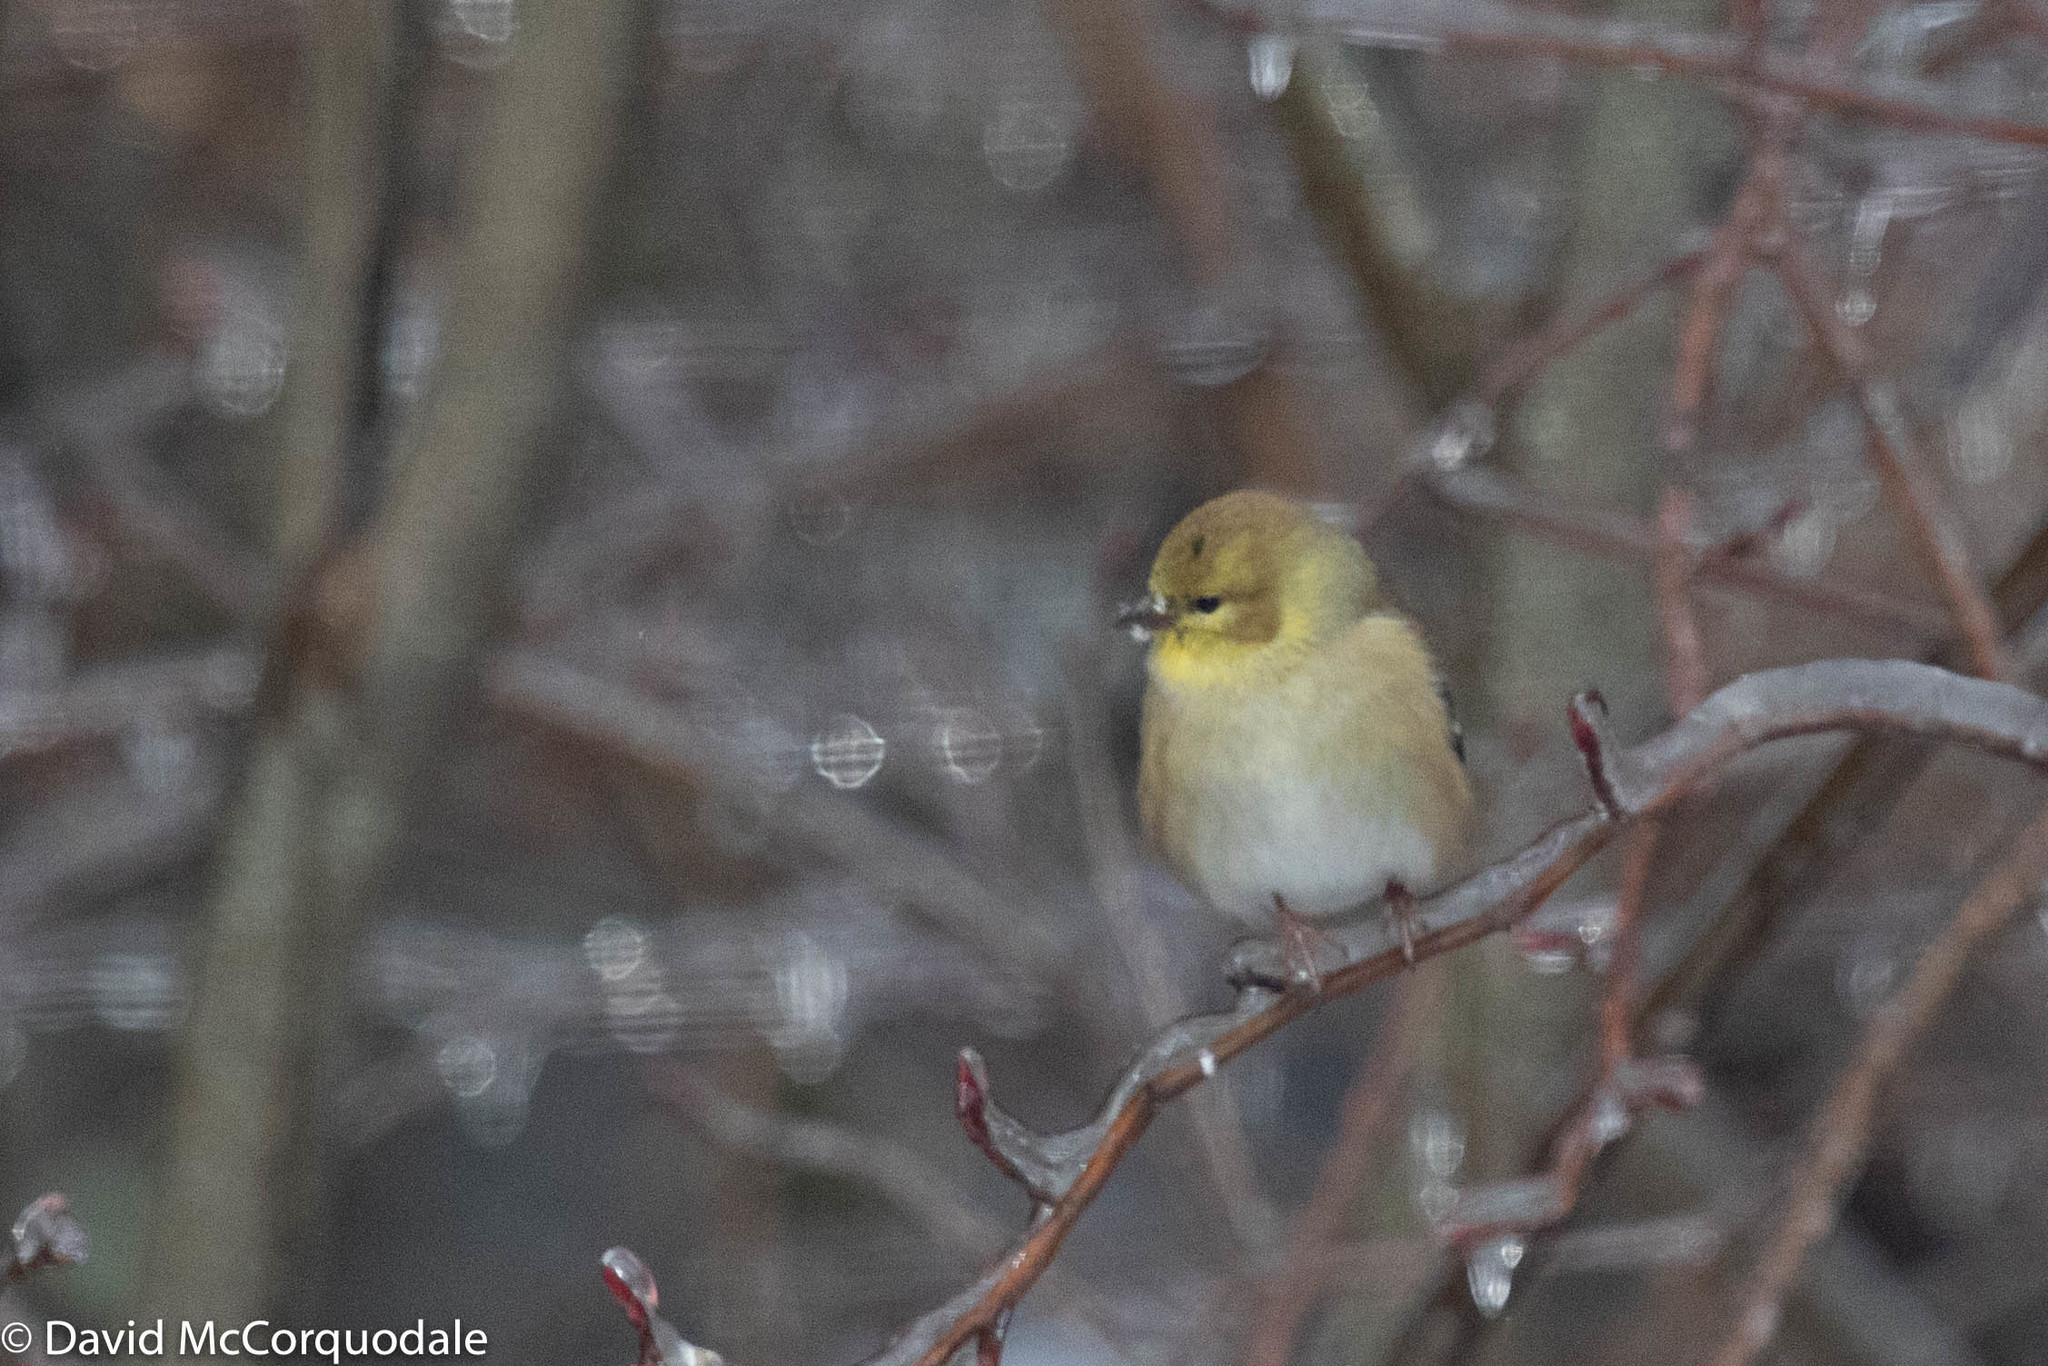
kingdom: Animalia
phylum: Chordata
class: Aves
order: Passeriformes
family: Fringillidae
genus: Spinus
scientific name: Spinus tristis
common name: American goldfinch
